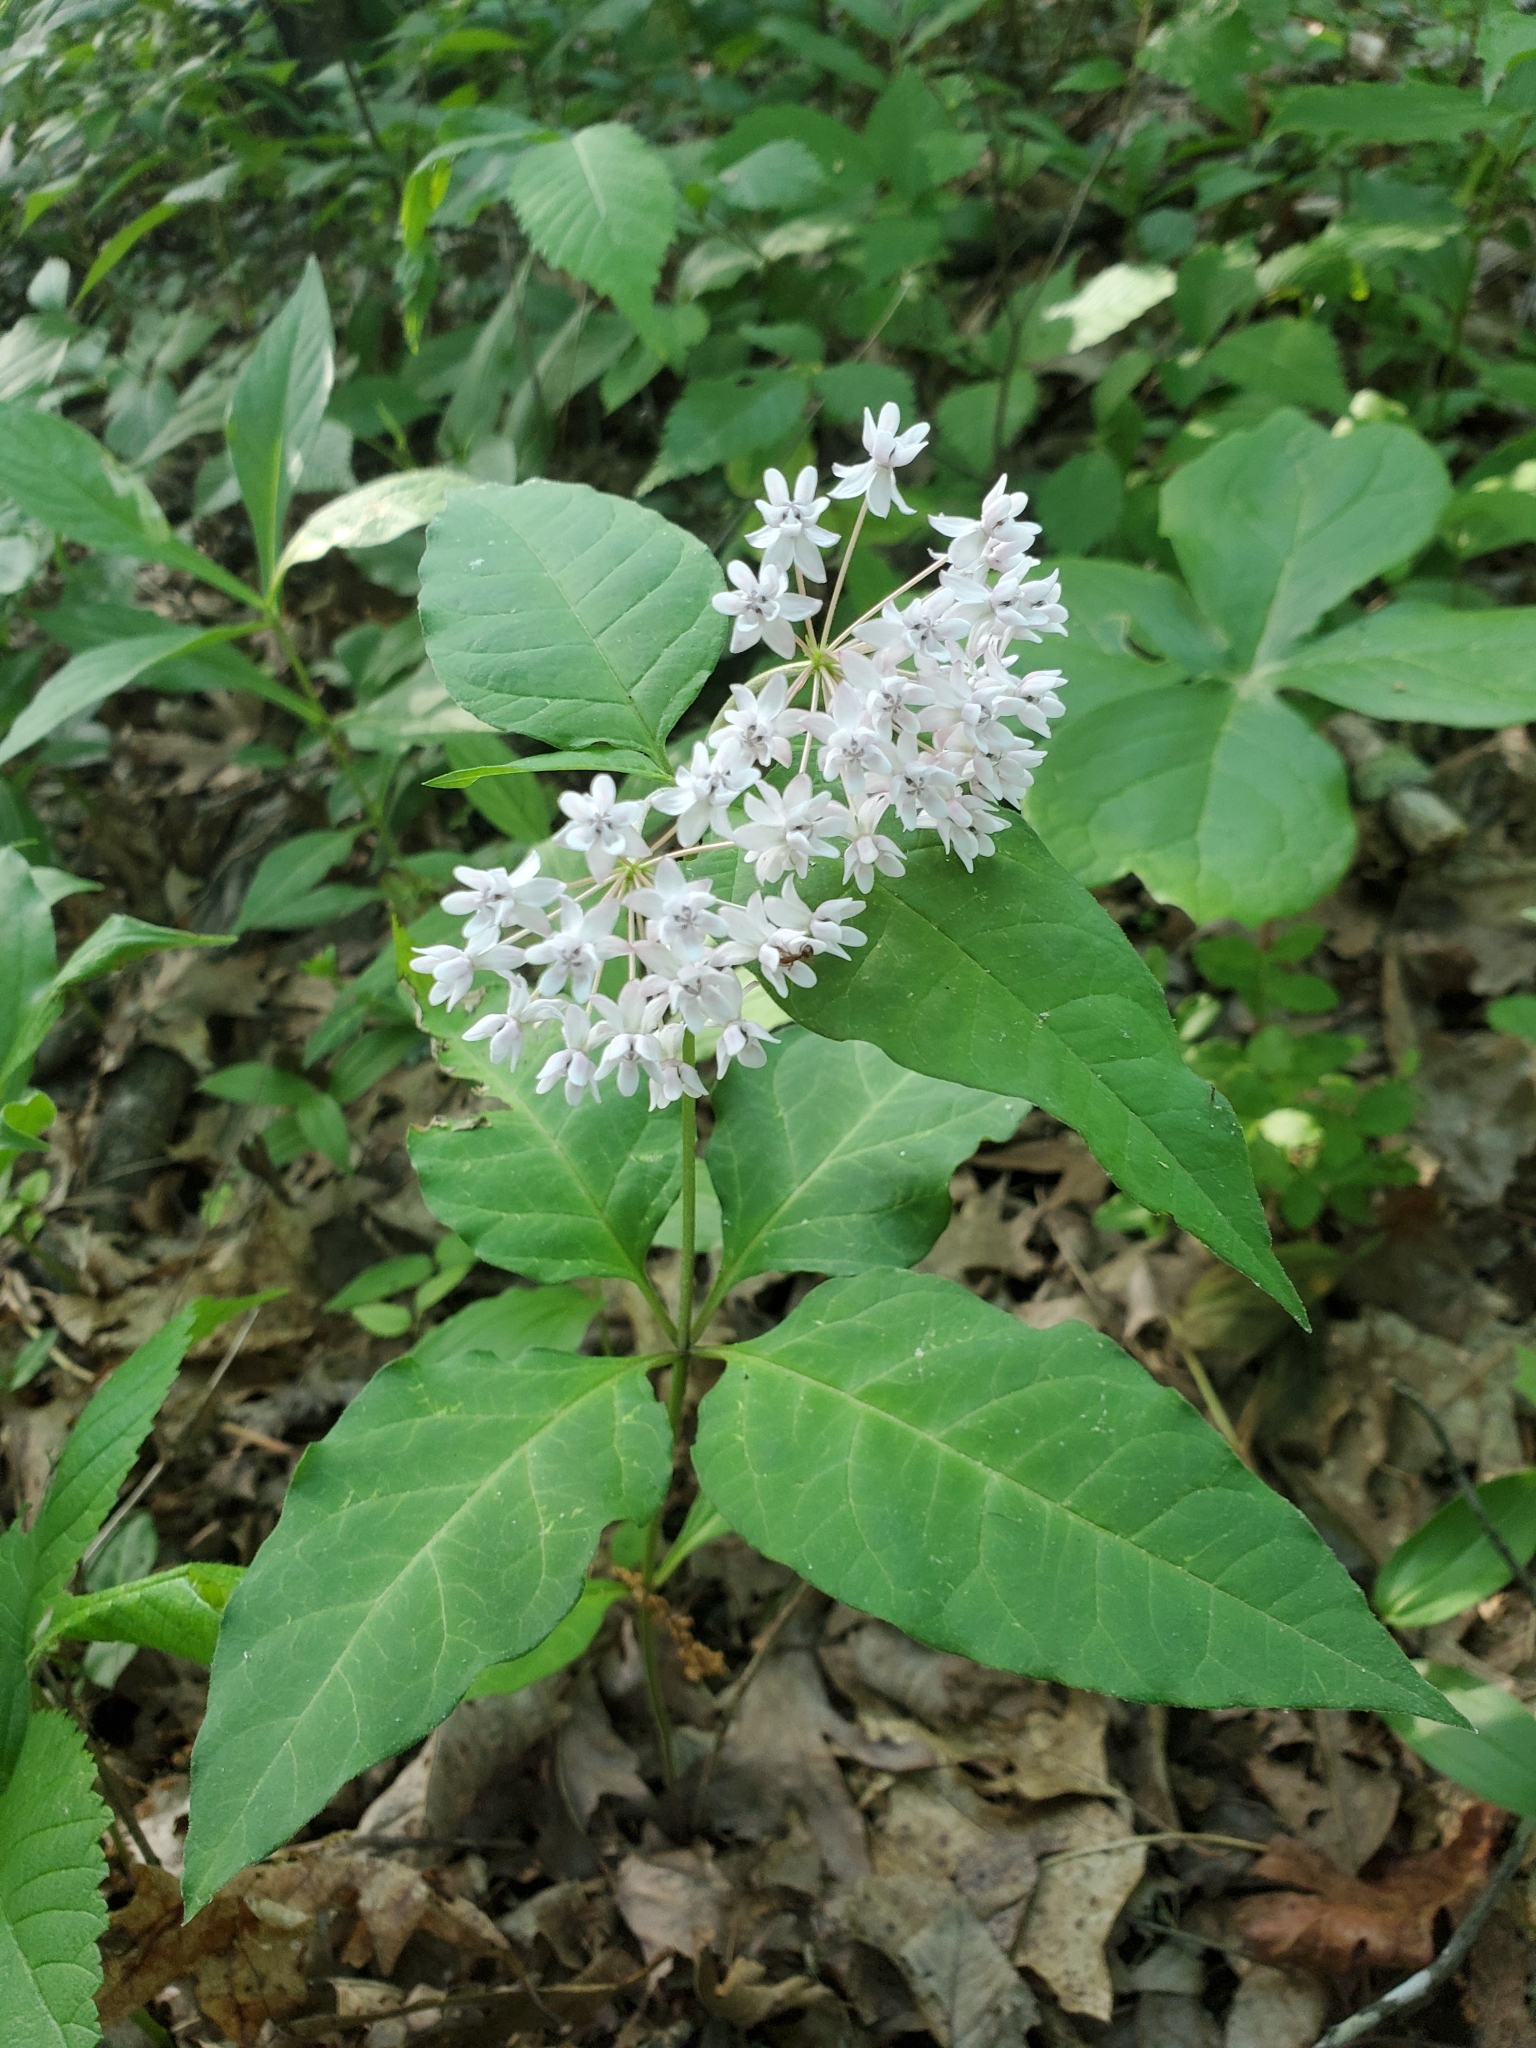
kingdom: Plantae
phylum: Tracheophyta
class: Magnoliopsida
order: Gentianales
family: Apocynaceae
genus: Asclepias
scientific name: Asclepias quadrifolia
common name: Whorled milkweed
